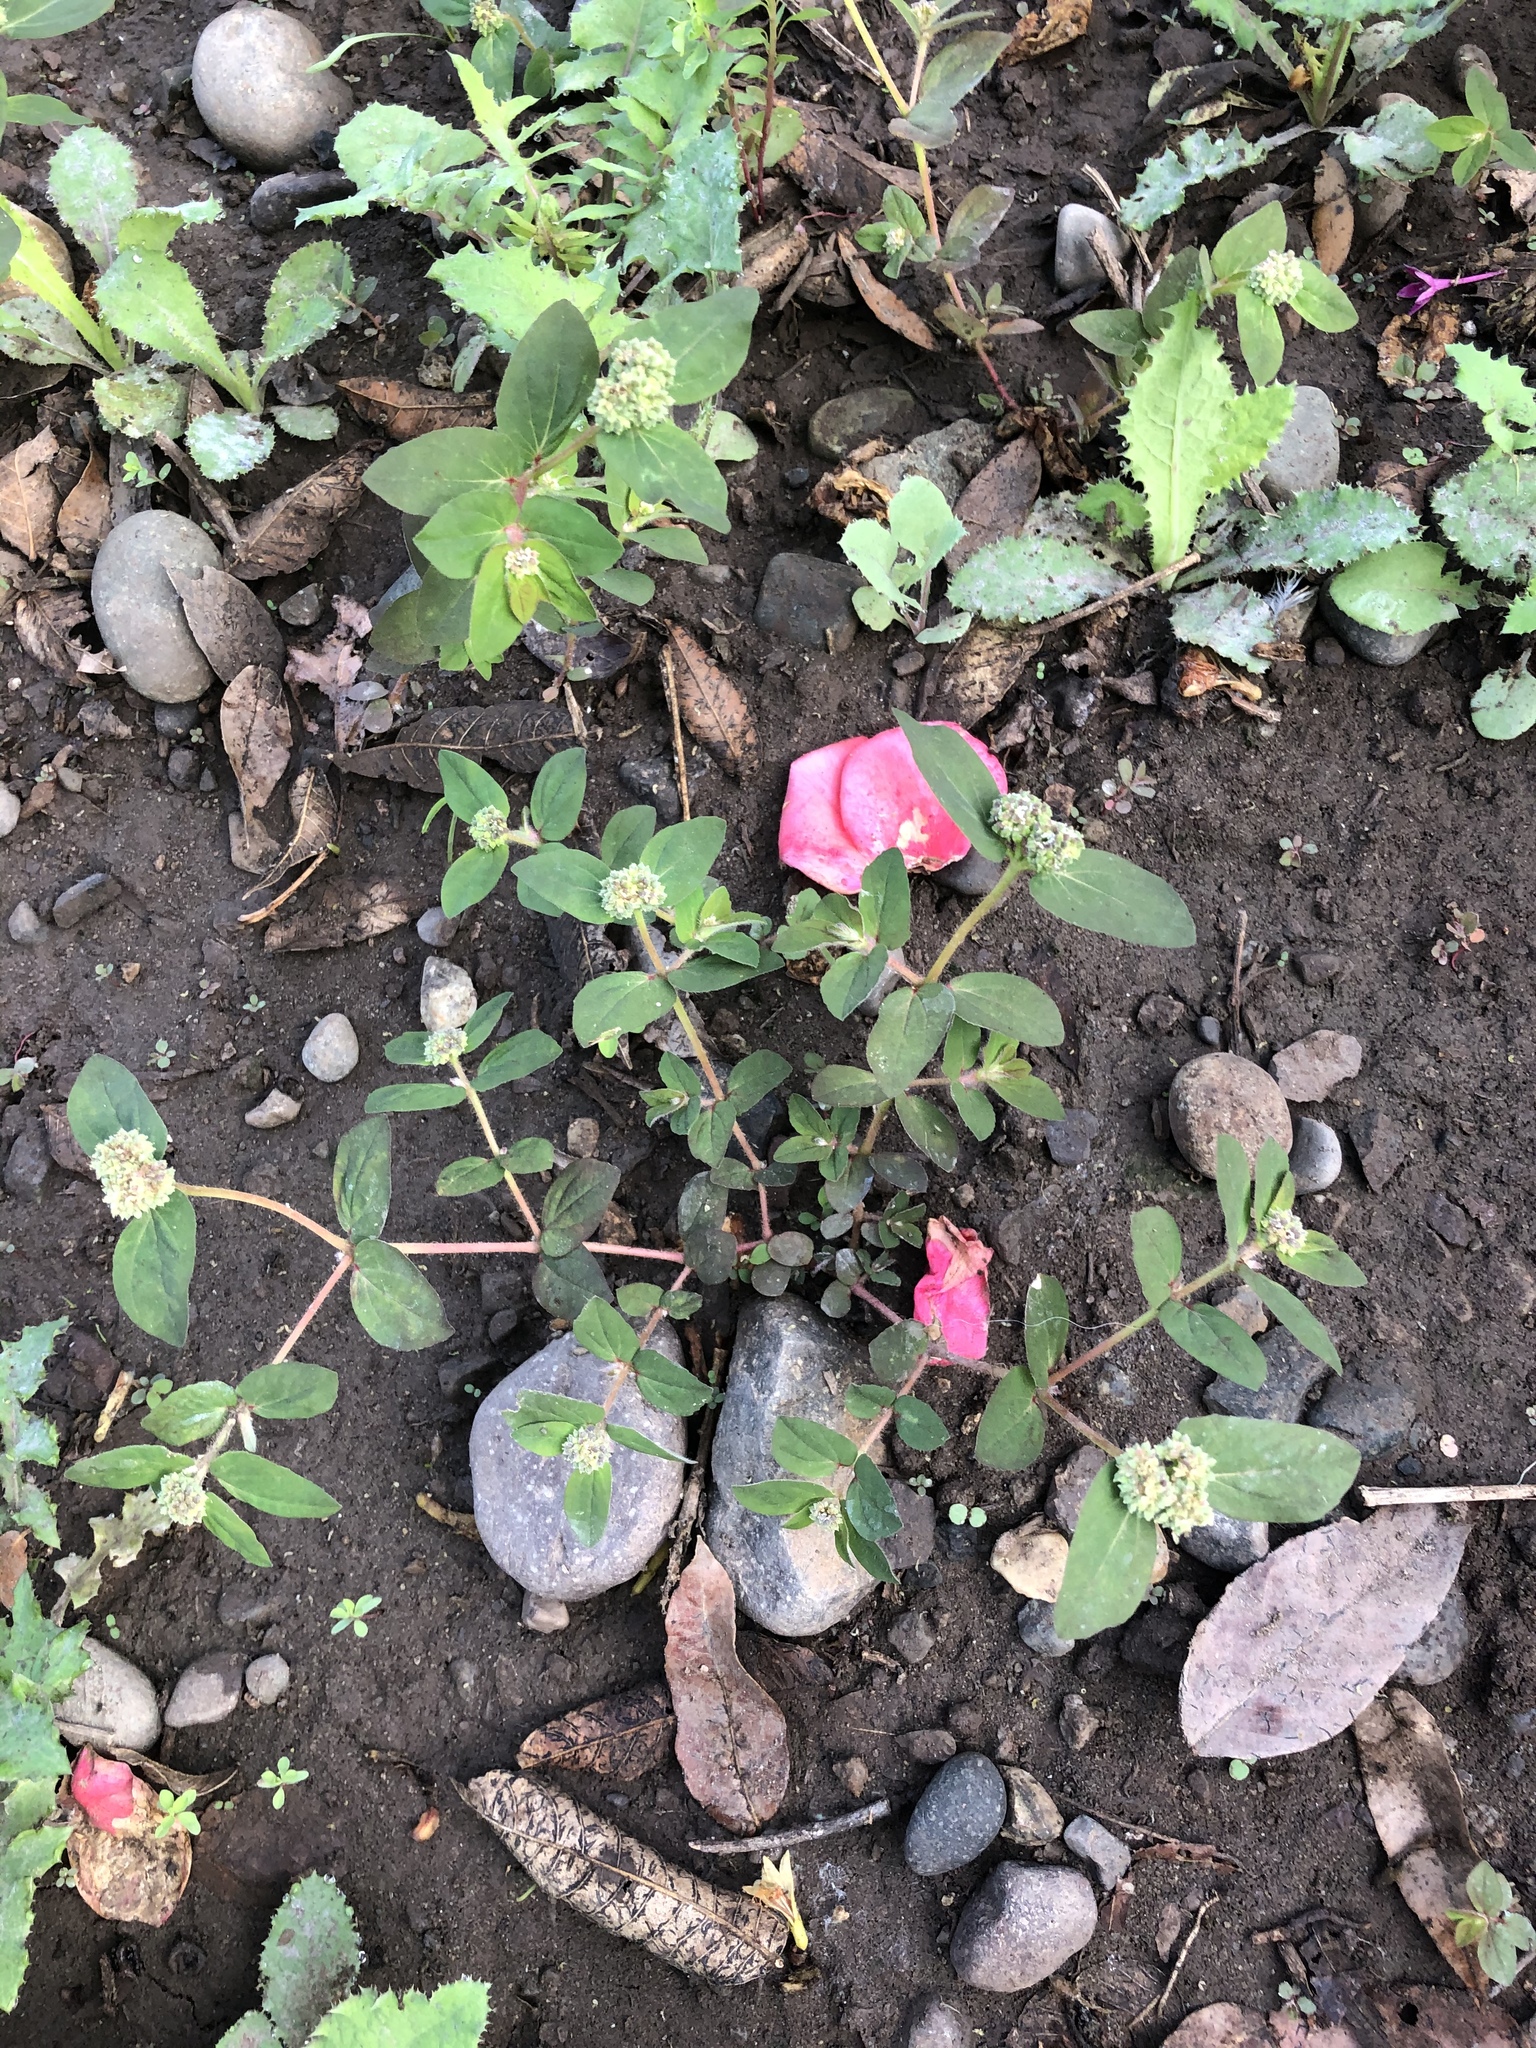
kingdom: Plantae
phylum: Tracheophyta
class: Magnoliopsida
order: Malpighiales
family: Euphorbiaceae
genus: Euphorbia
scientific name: Euphorbia ophthalmica
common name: Florida hammock sandmat
